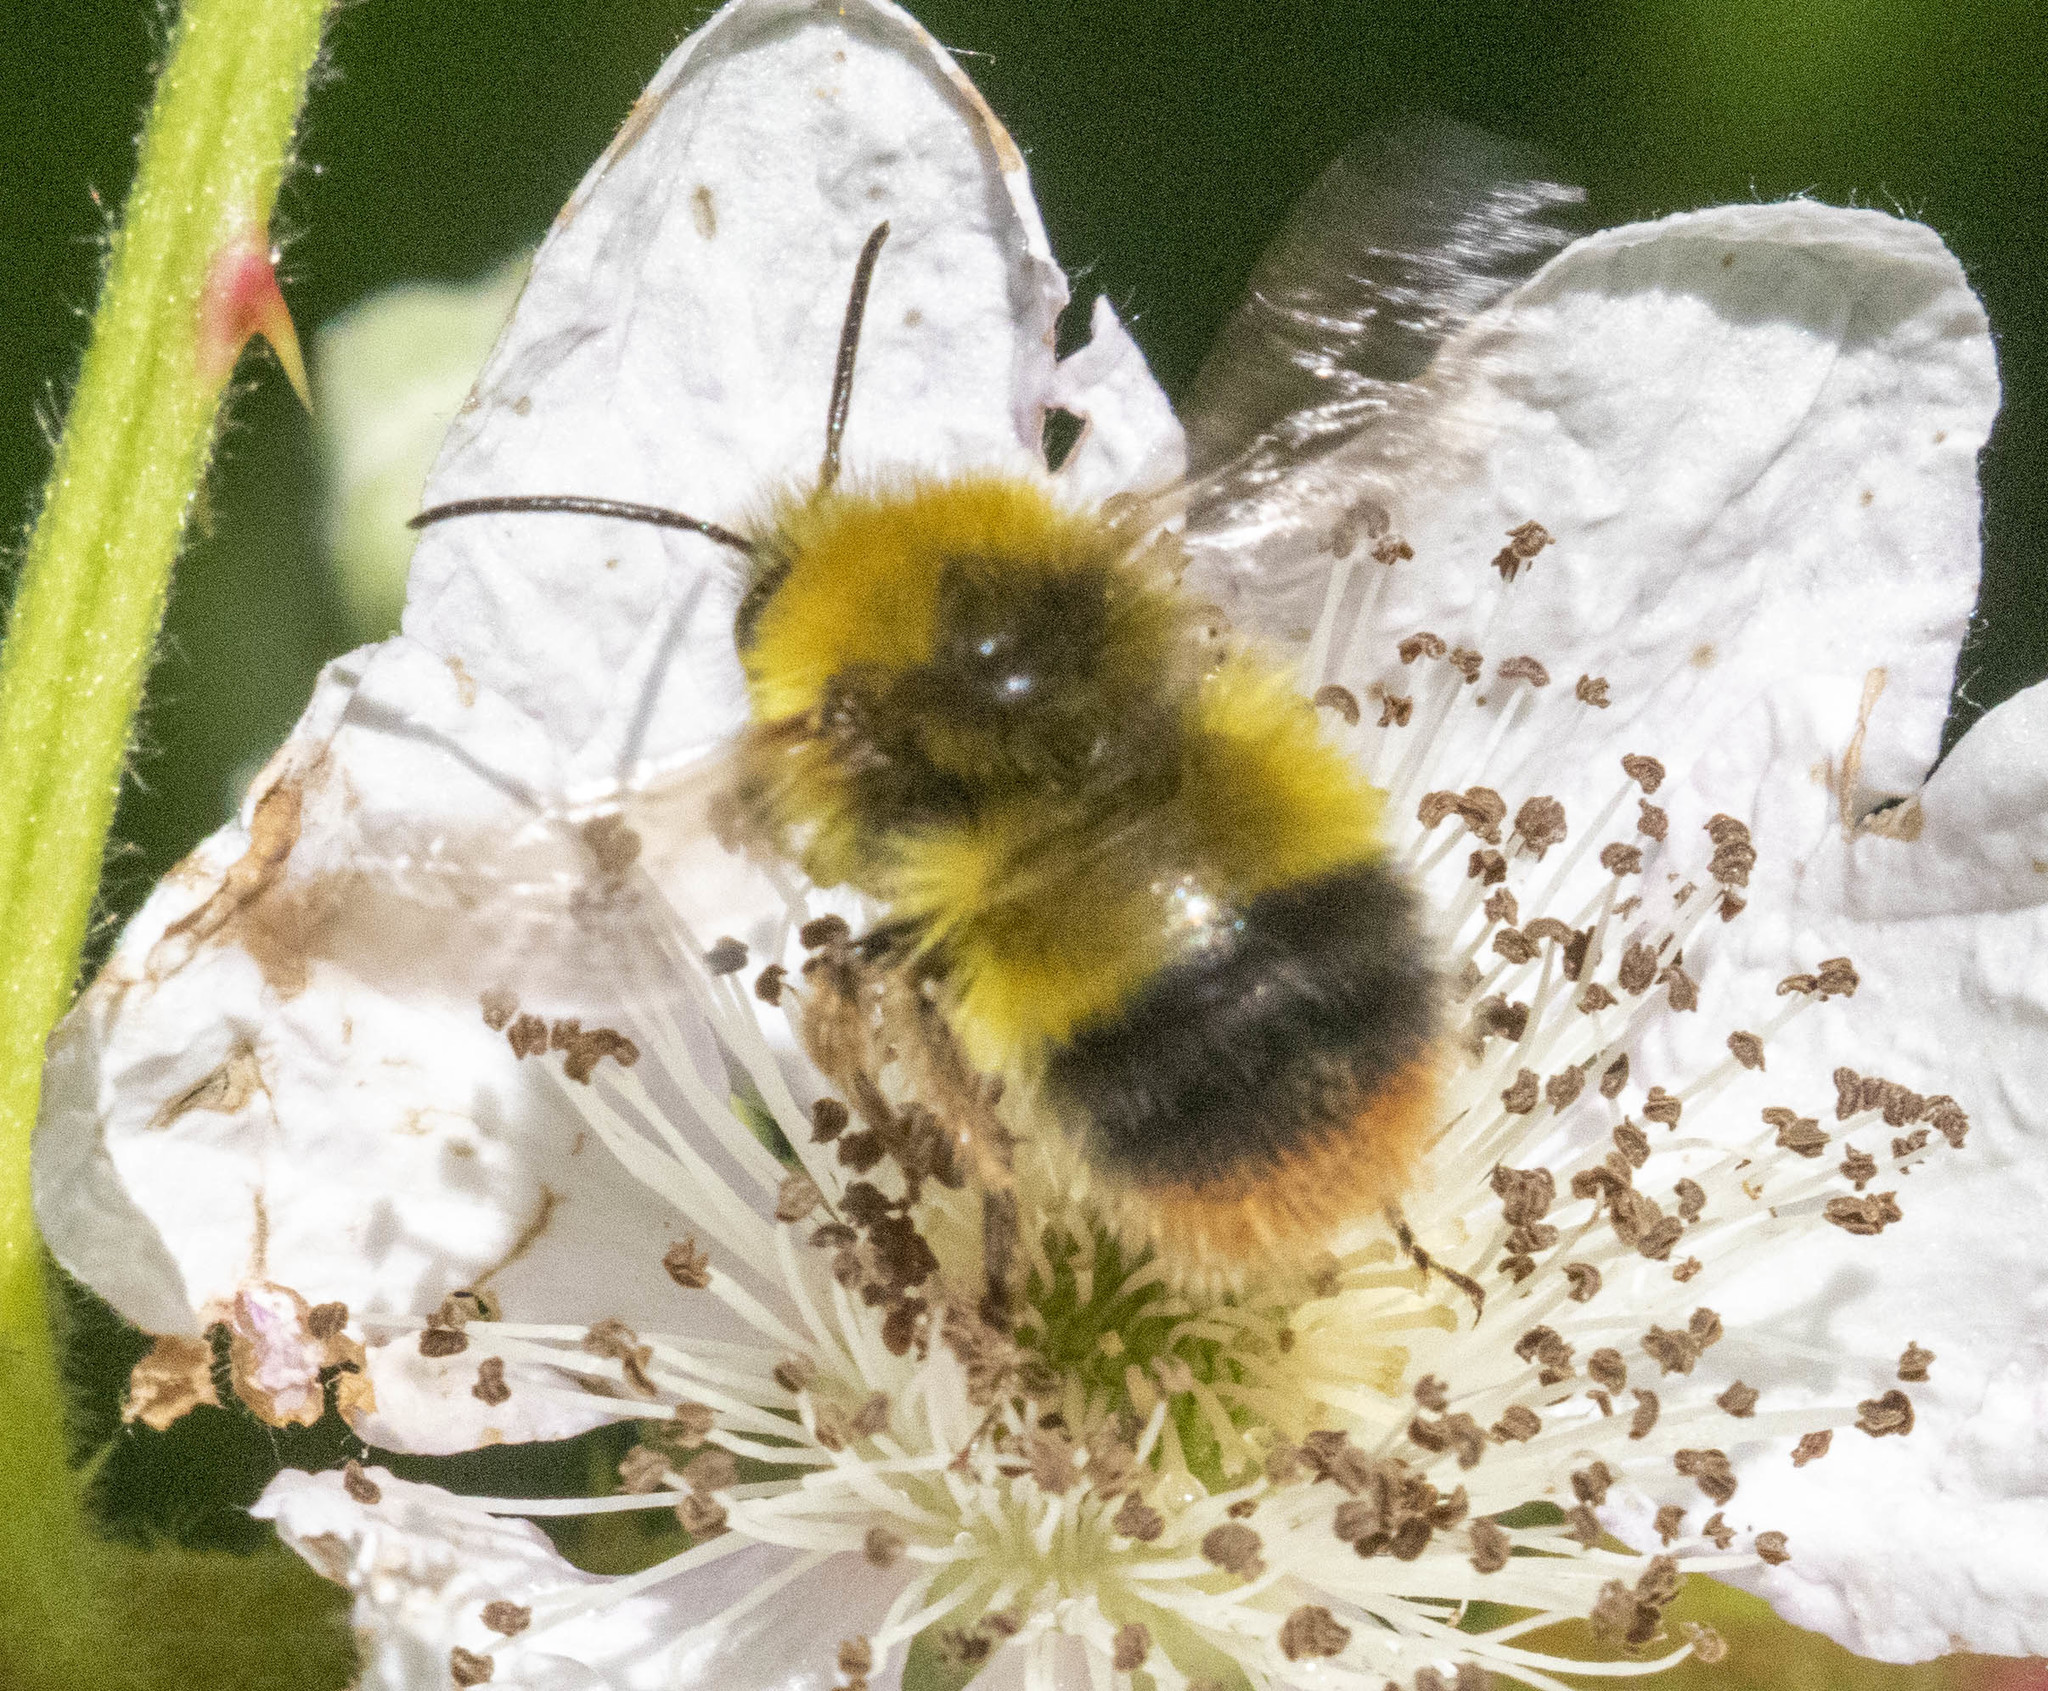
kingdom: Animalia
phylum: Arthropoda
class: Insecta
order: Hymenoptera
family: Apidae
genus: Bombus
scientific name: Bombus pratorum
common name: Early humble-bee
